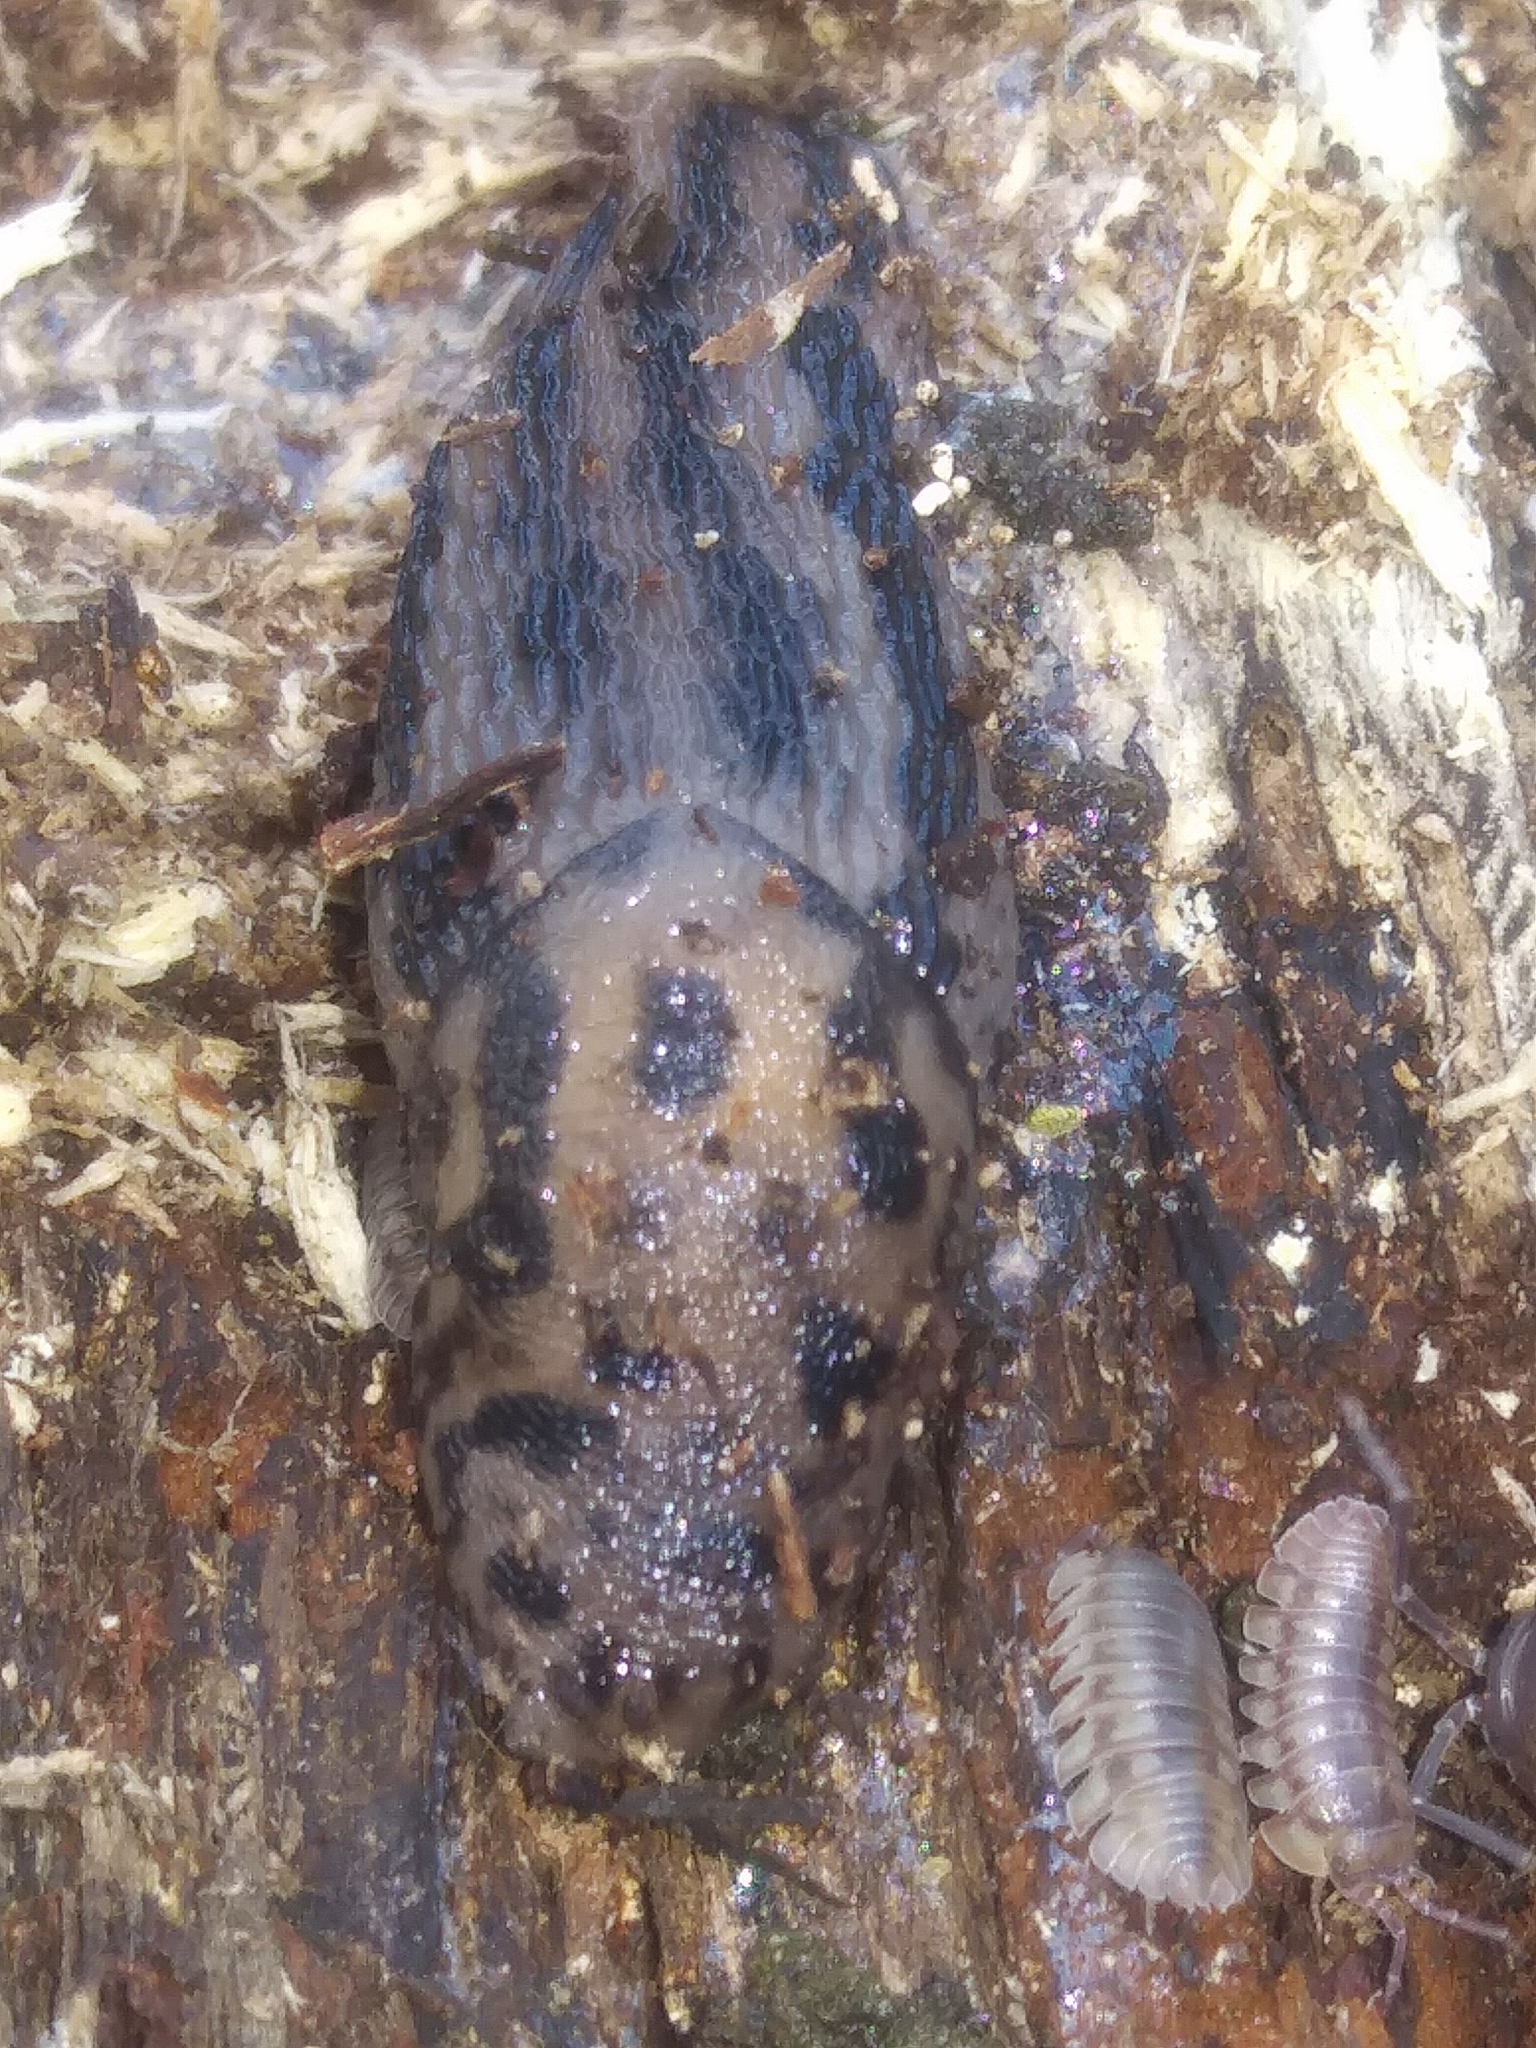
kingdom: Animalia
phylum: Mollusca
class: Gastropoda
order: Stylommatophora
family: Limacidae
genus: Limax
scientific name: Limax maximus
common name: Great grey slug
